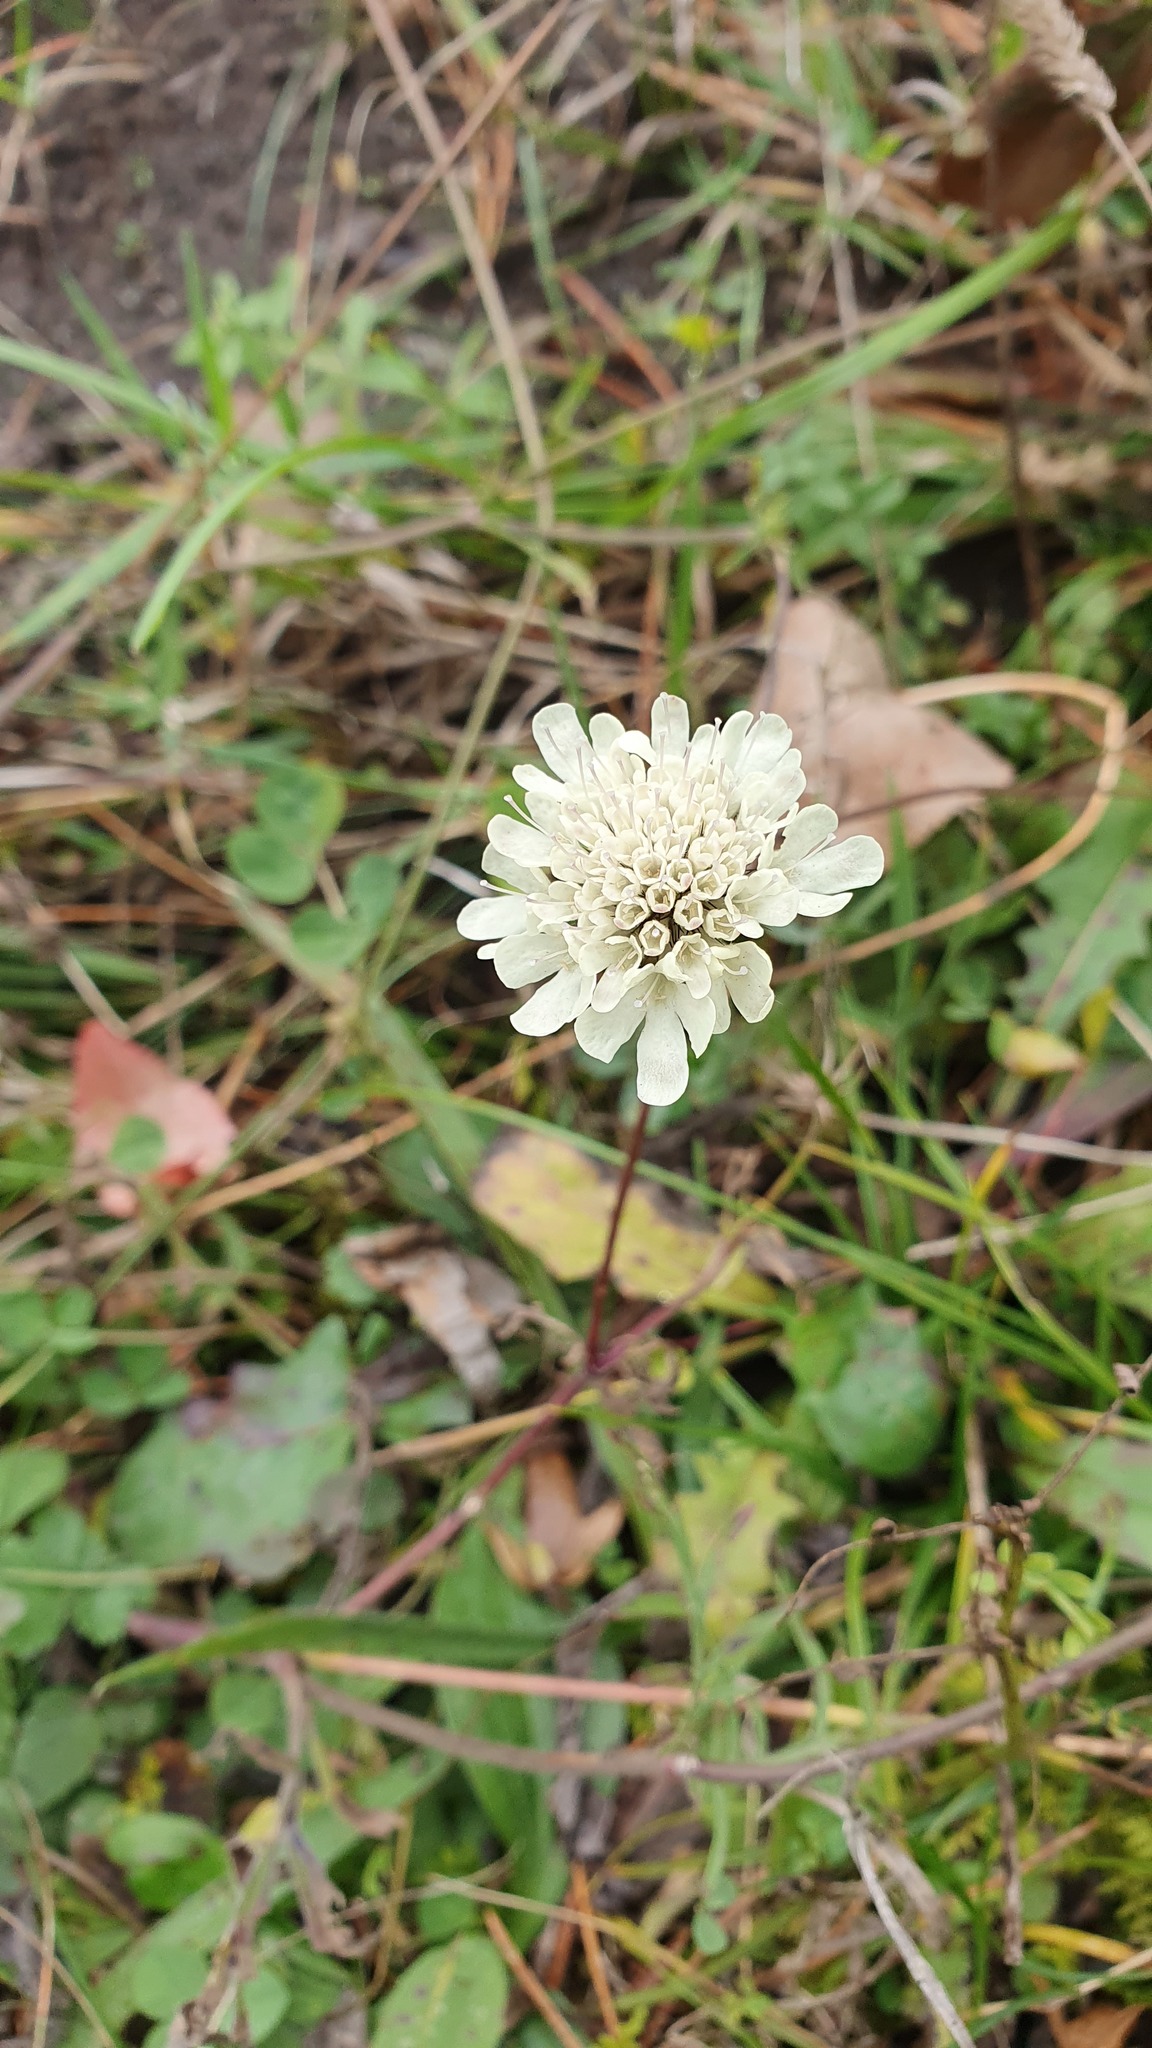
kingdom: Plantae
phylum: Tracheophyta
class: Magnoliopsida
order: Dipsacales
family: Caprifoliaceae
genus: Scabiosa
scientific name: Scabiosa ochroleuca
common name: Cream pincushions
